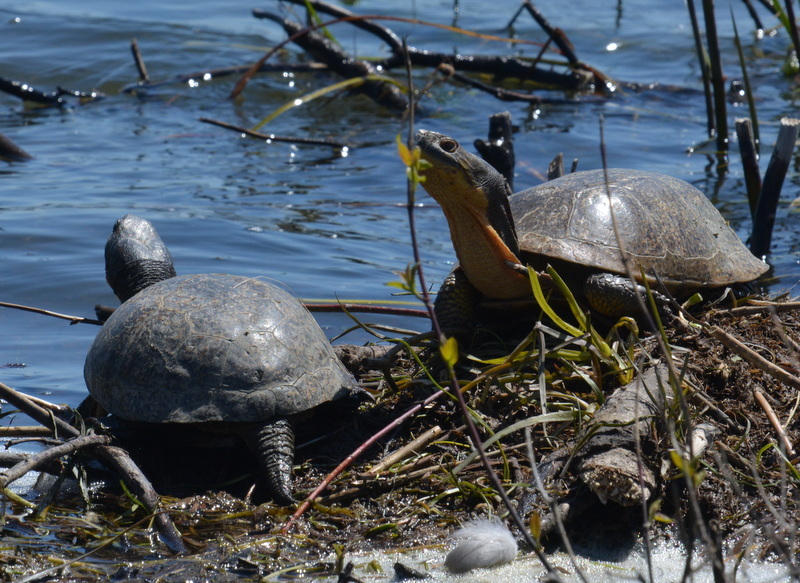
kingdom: Animalia
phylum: Chordata
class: Testudines
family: Emydidae
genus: Emys
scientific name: Emys blandingii
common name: Blanding's turtle
